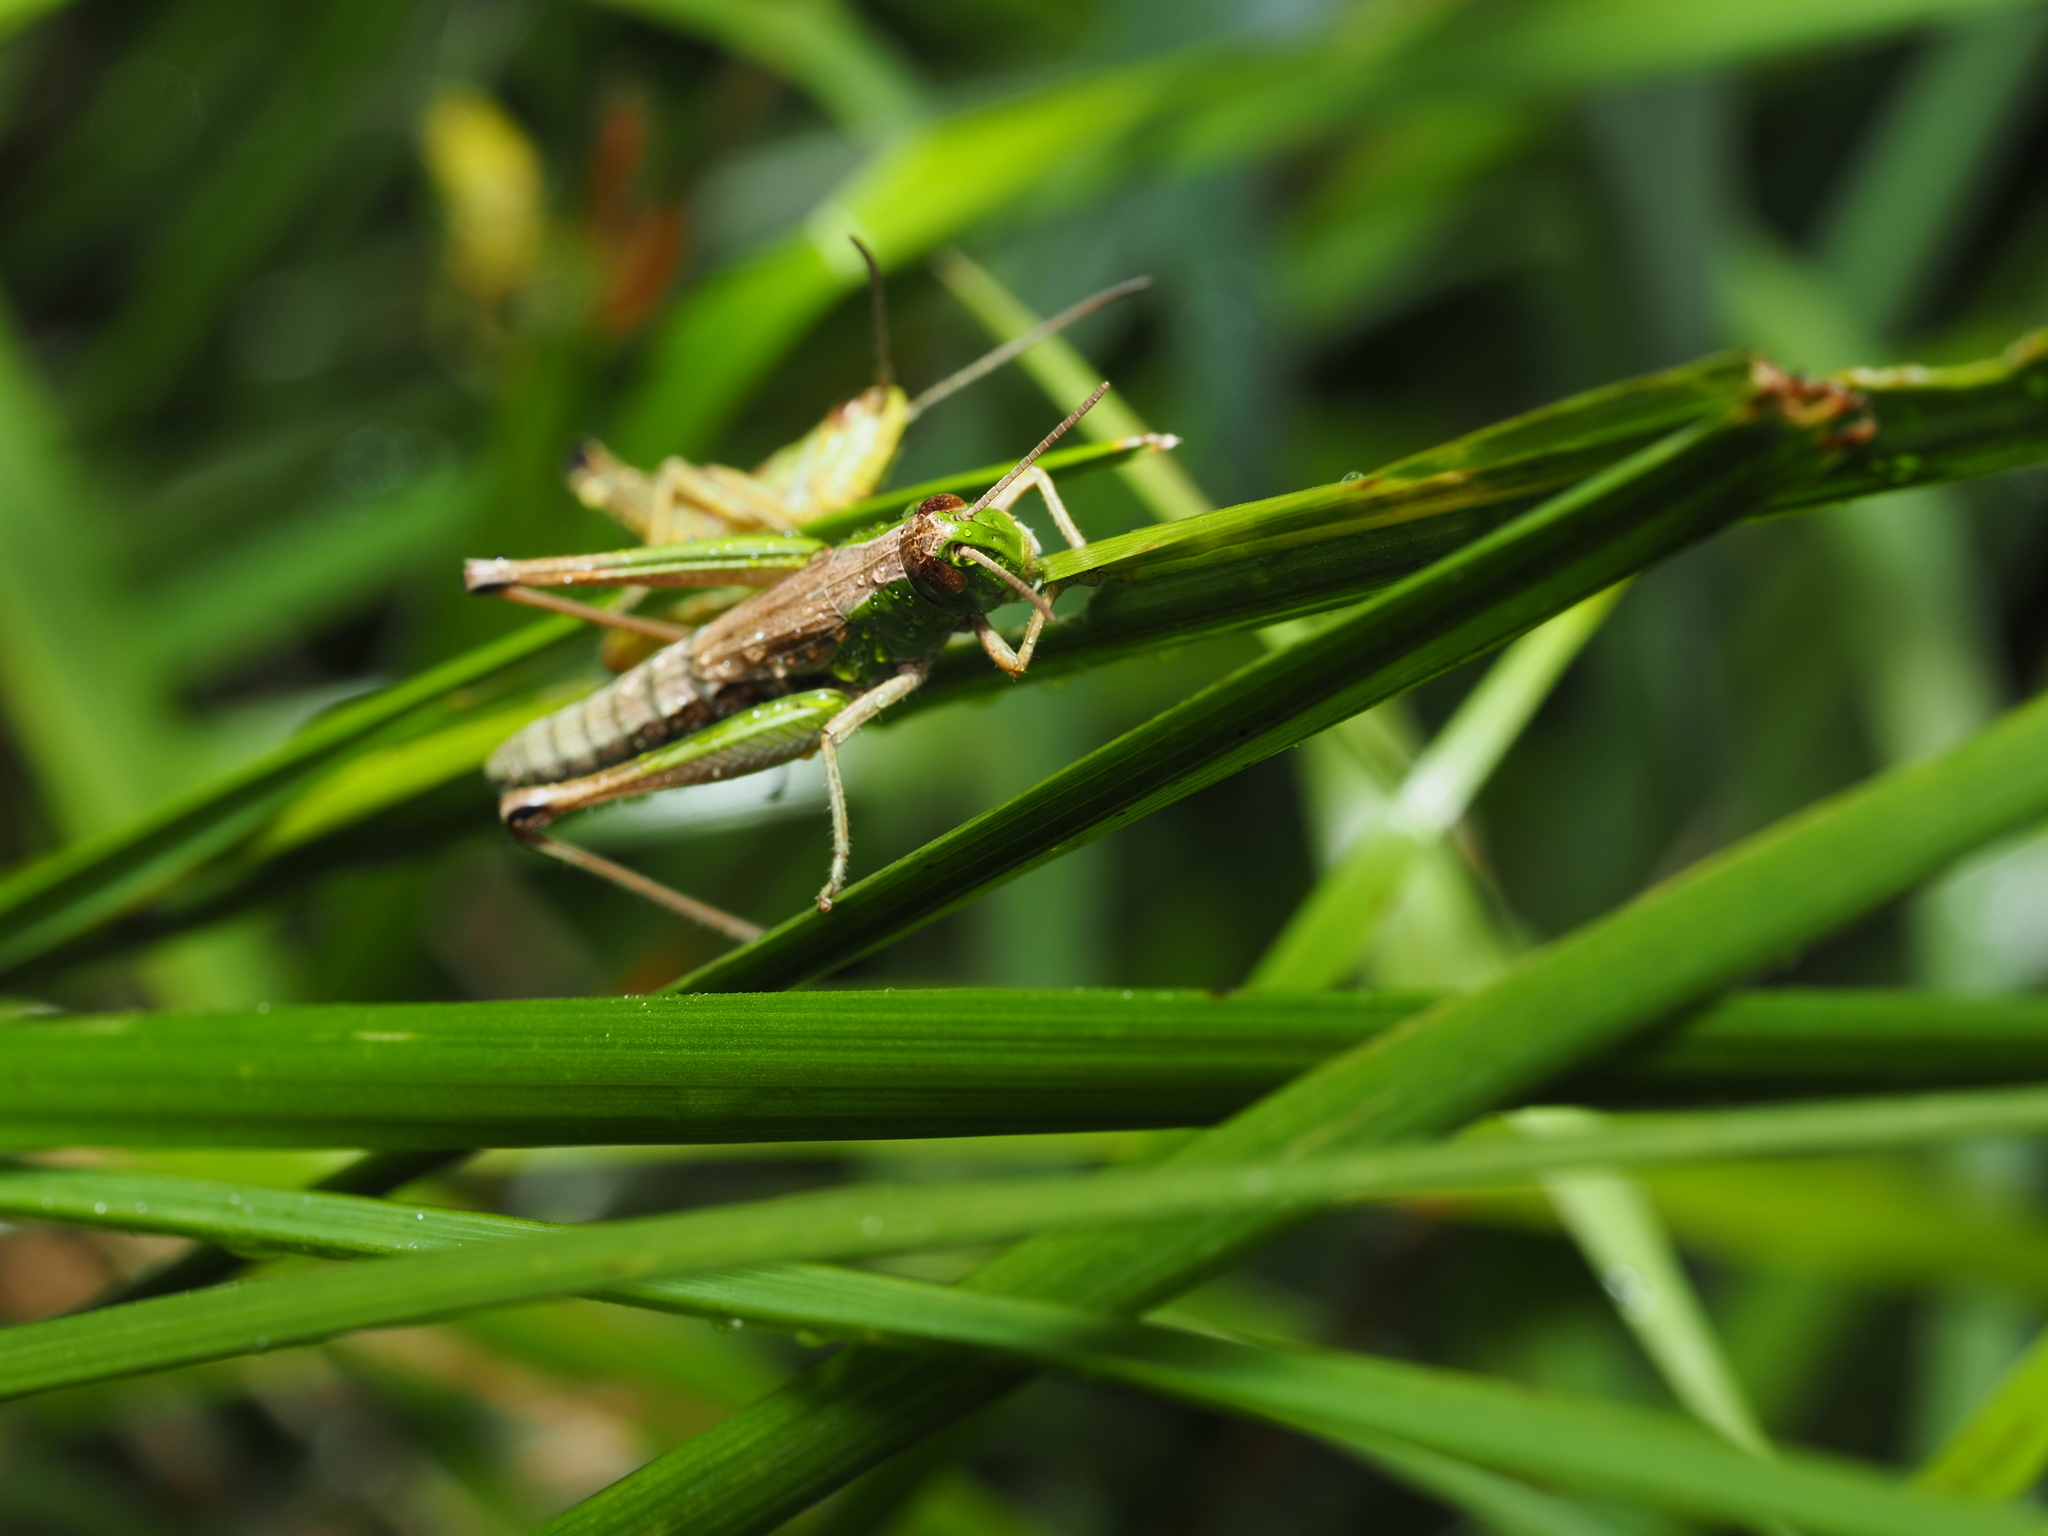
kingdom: Animalia
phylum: Arthropoda
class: Insecta
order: Orthoptera
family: Acrididae
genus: Pseudochorthippus
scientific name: Pseudochorthippus parallelus
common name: Meadow grasshopper
